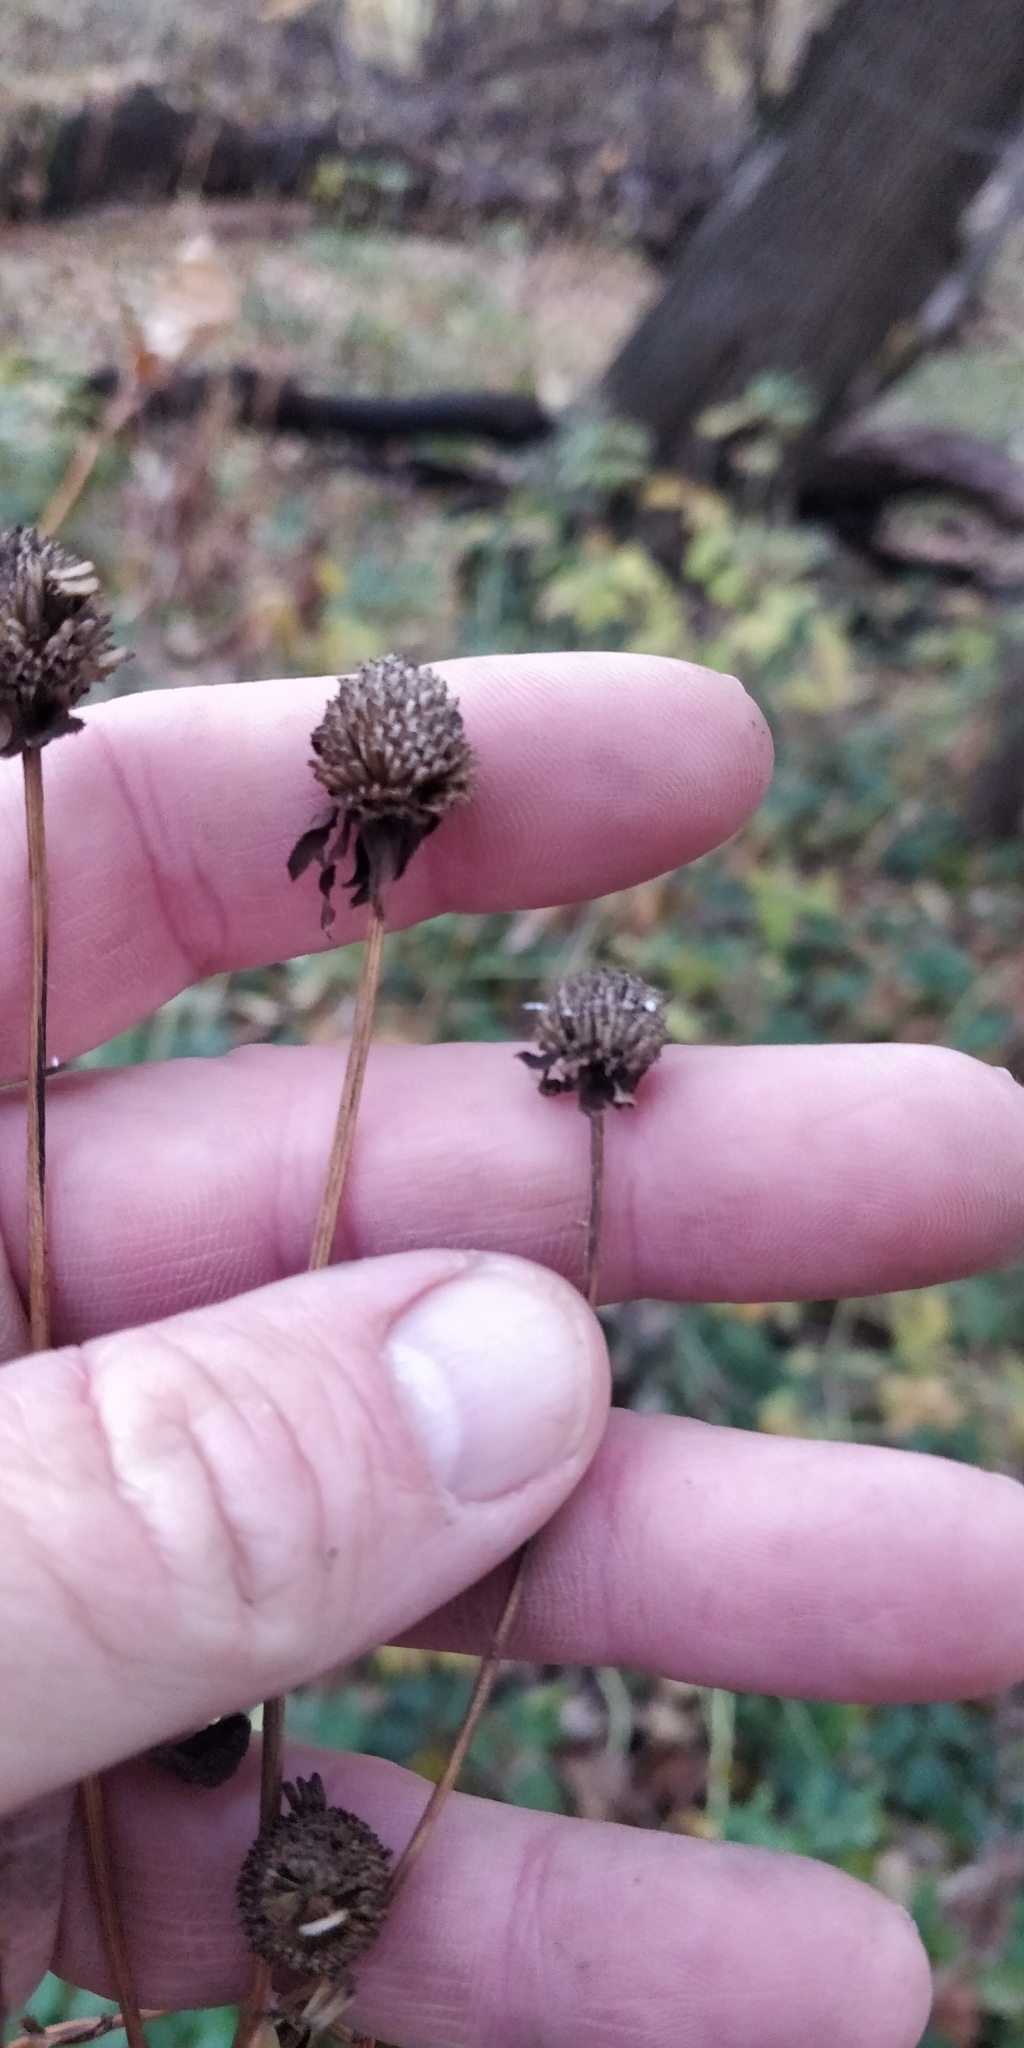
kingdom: Plantae
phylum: Tracheophyta
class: Magnoliopsida
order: Asterales
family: Asteraceae
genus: Rudbeckia
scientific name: Rudbeckia laciniata
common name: Coneflower
